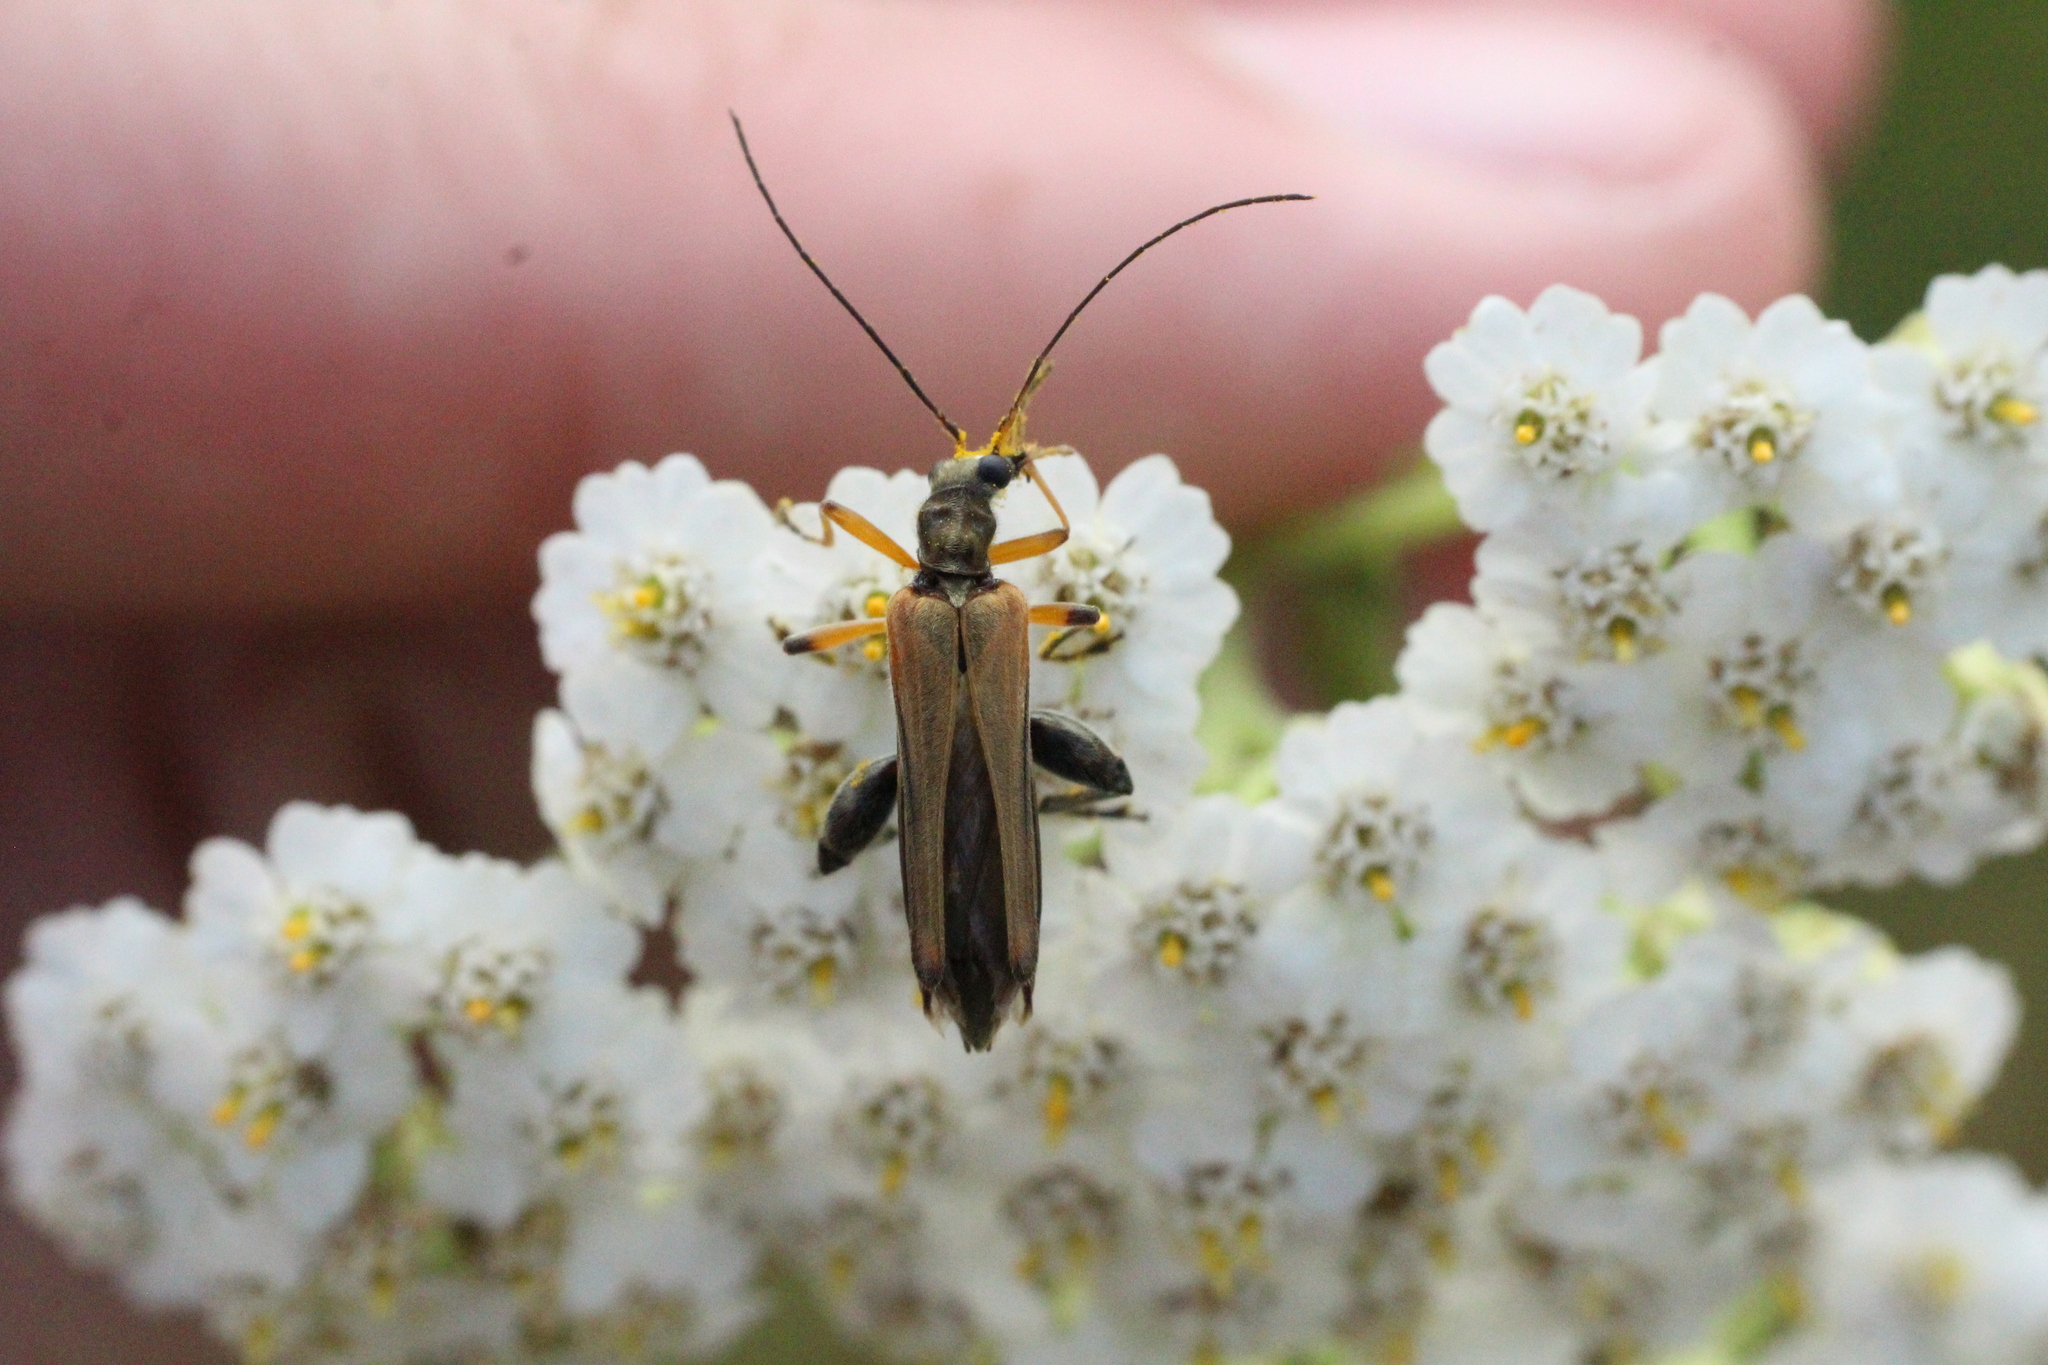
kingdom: Animalia
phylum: Arthropoda
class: Insecta
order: Coleoptera
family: Oedemeridae
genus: Oedemera
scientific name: Oedemera podagrariae
